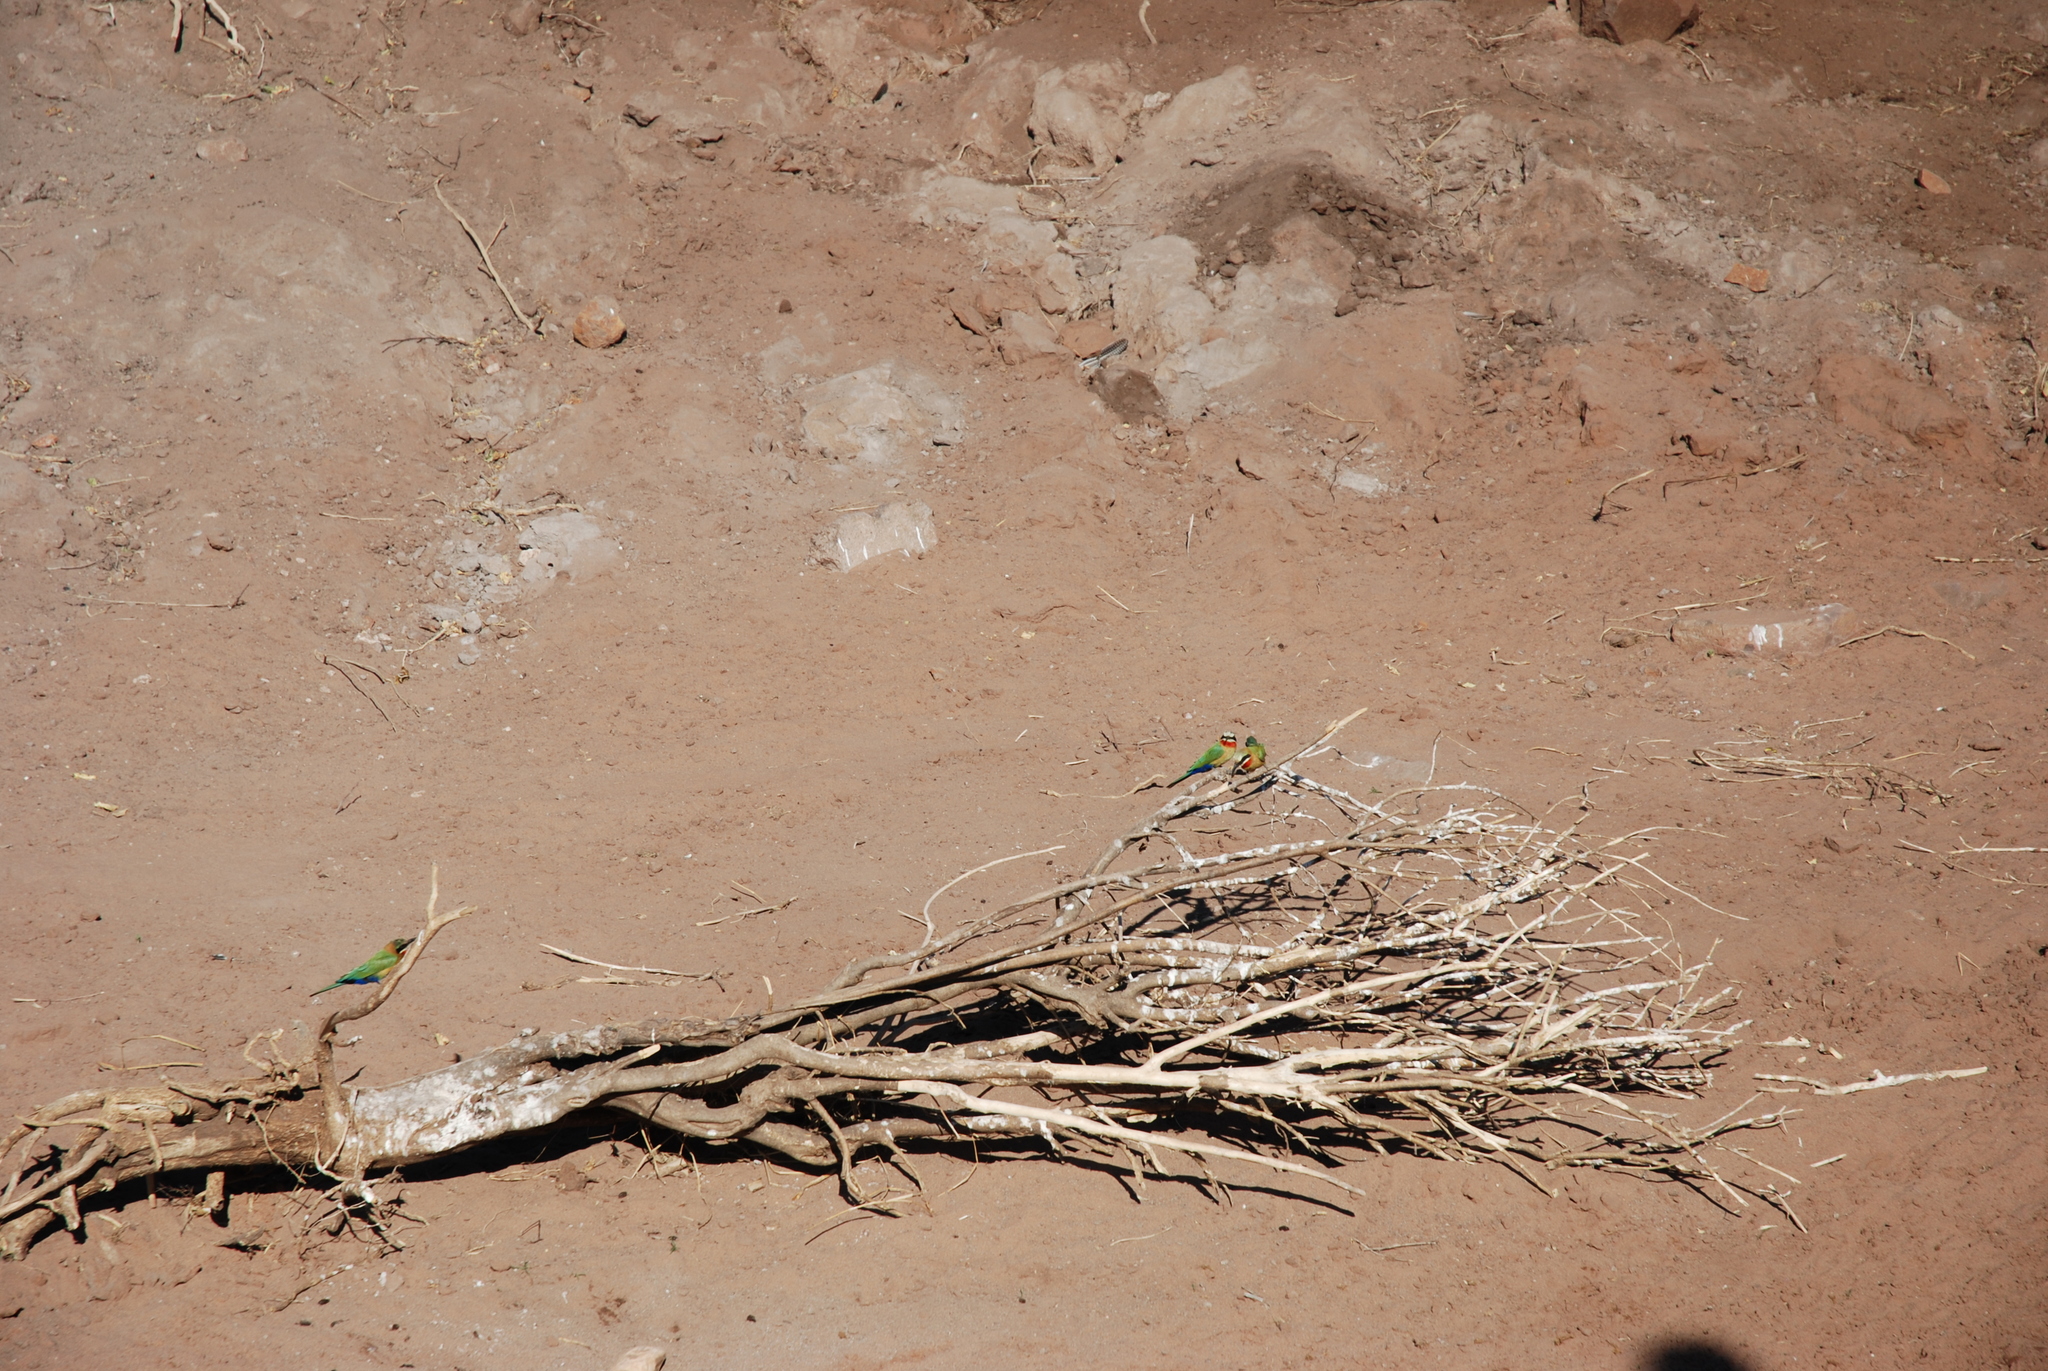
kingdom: Animalia
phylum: Chordata
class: Aves
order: Coraciiformes
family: Meropidae
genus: Merops
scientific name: Merops bullockoides
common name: White-fronted bee-eater
